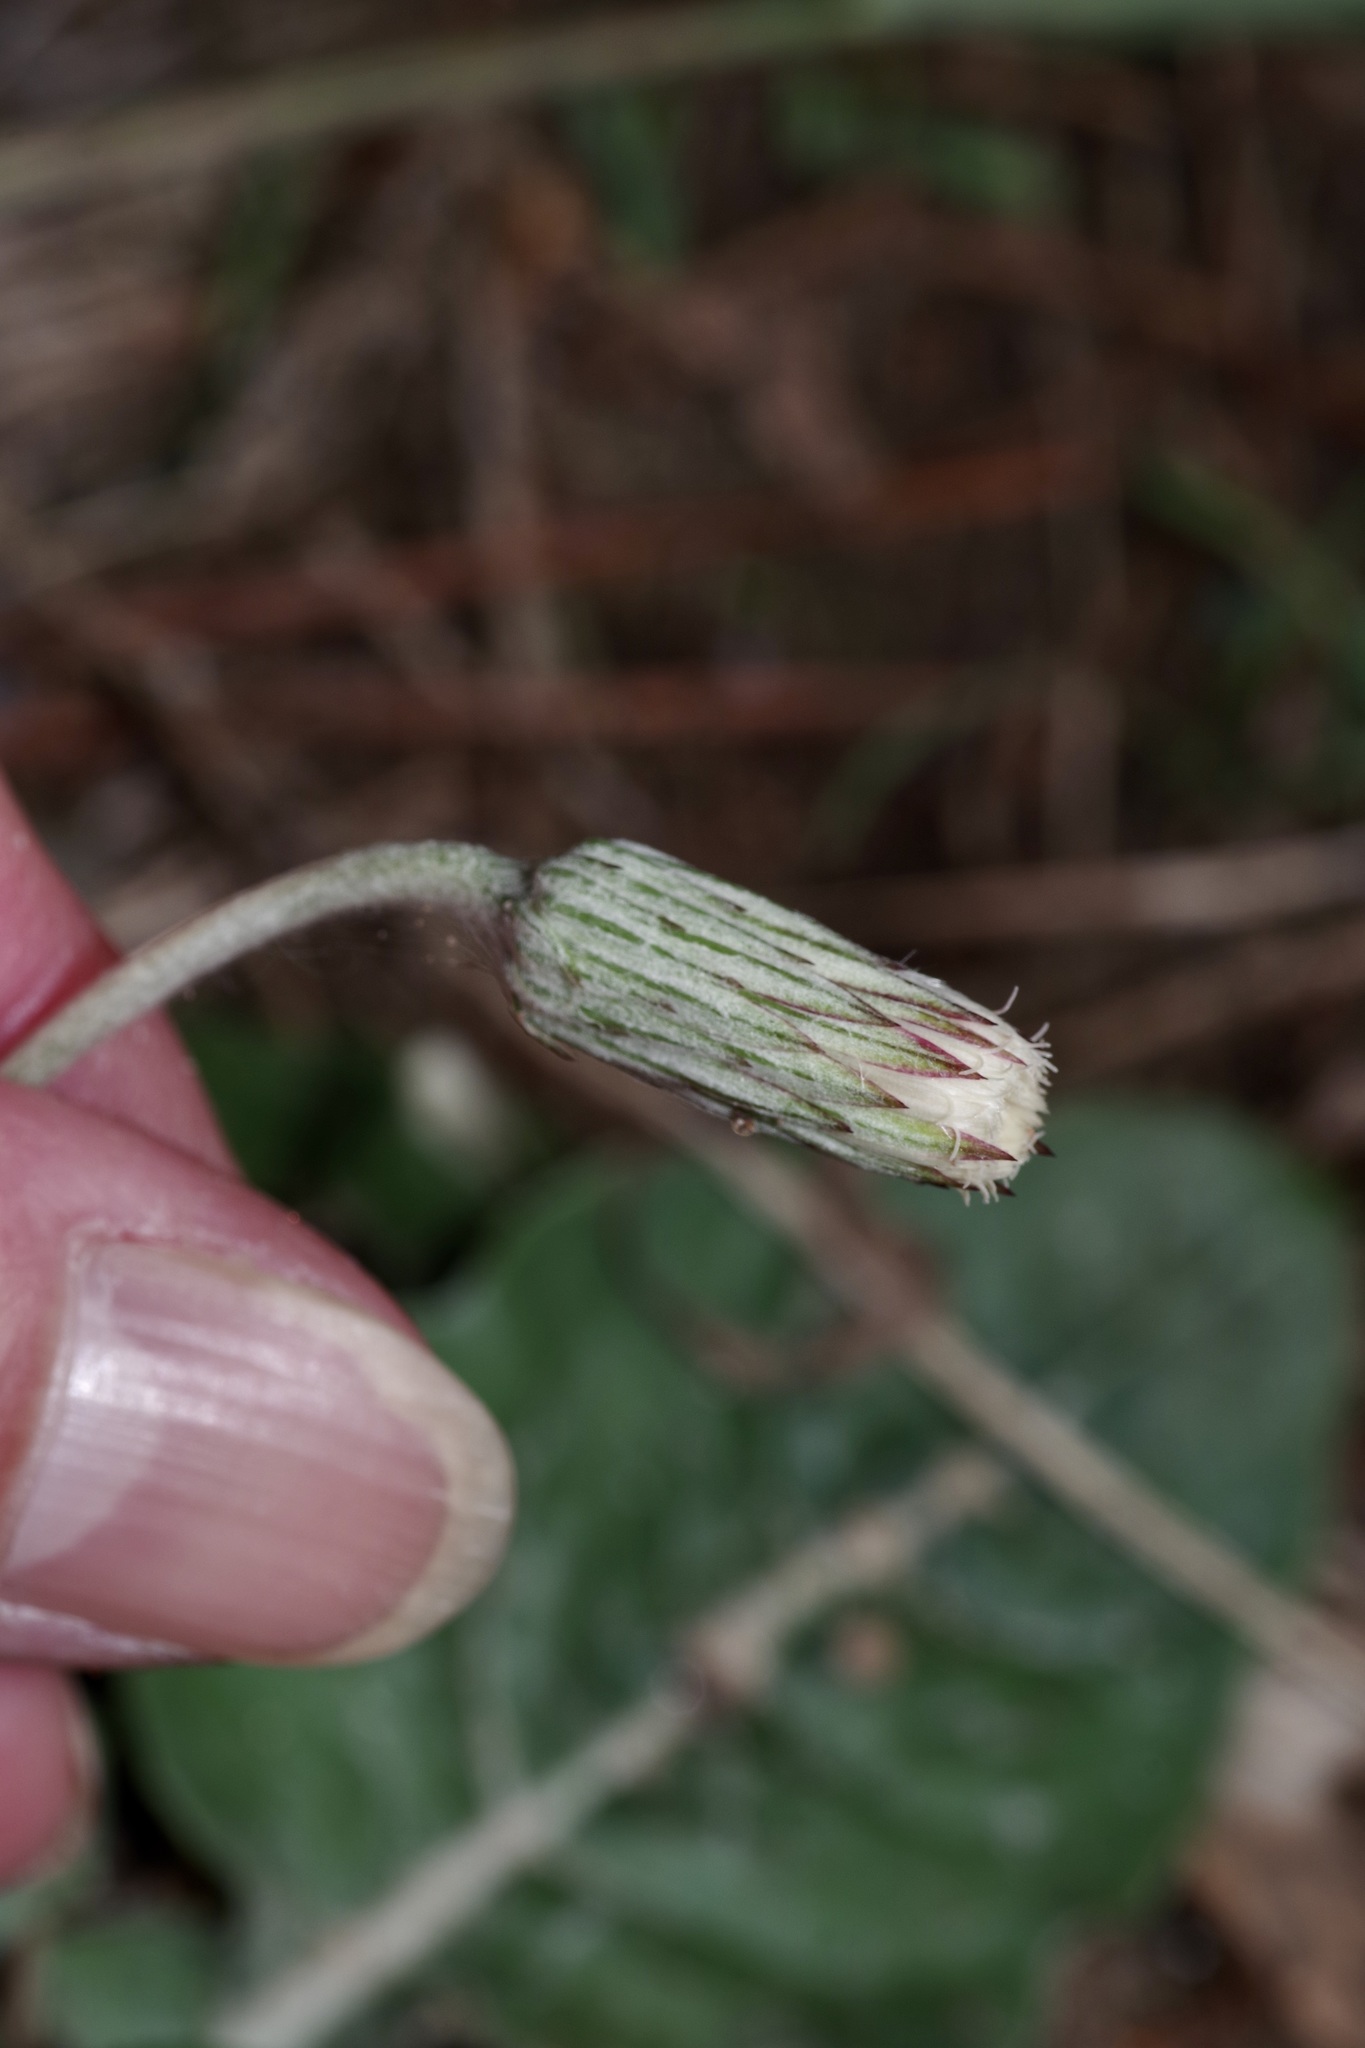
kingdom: Plantae
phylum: Tracheophyta
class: Magnoliopsida
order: Asterales
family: Asteraceae
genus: Chaptalia
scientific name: Chaptalia texana
